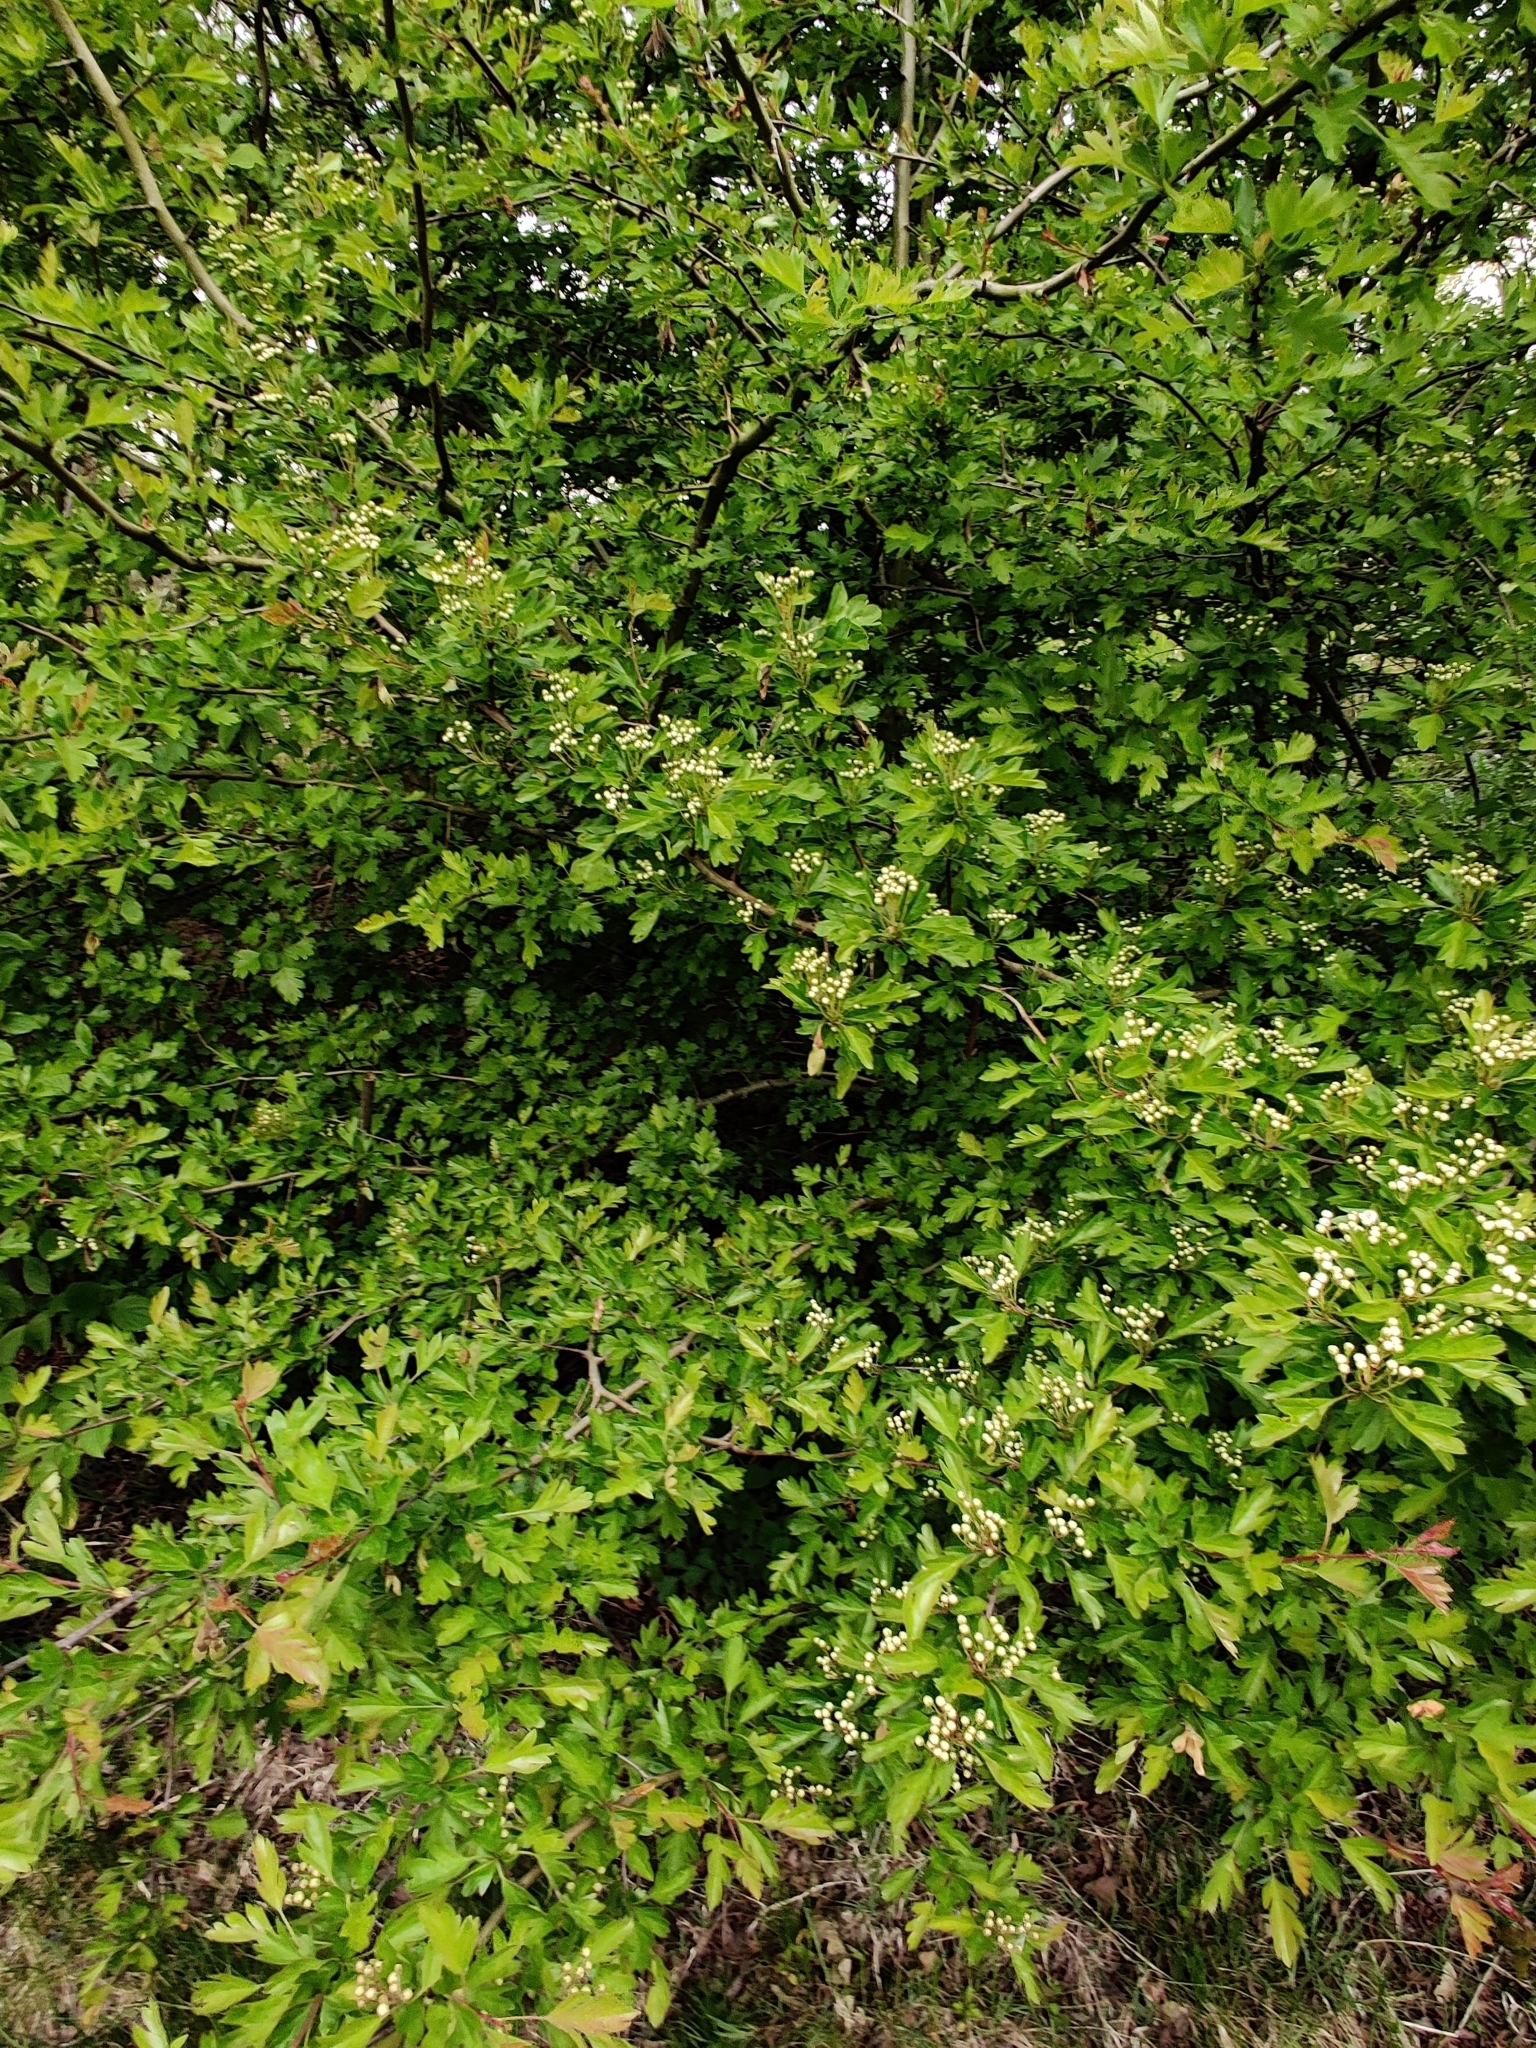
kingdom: Plantae
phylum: Tracheophyta
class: Magnoliopsida
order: Rosales
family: Rosaceae
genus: Crataegus
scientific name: Crataegus monogyna
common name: Hawthorn
